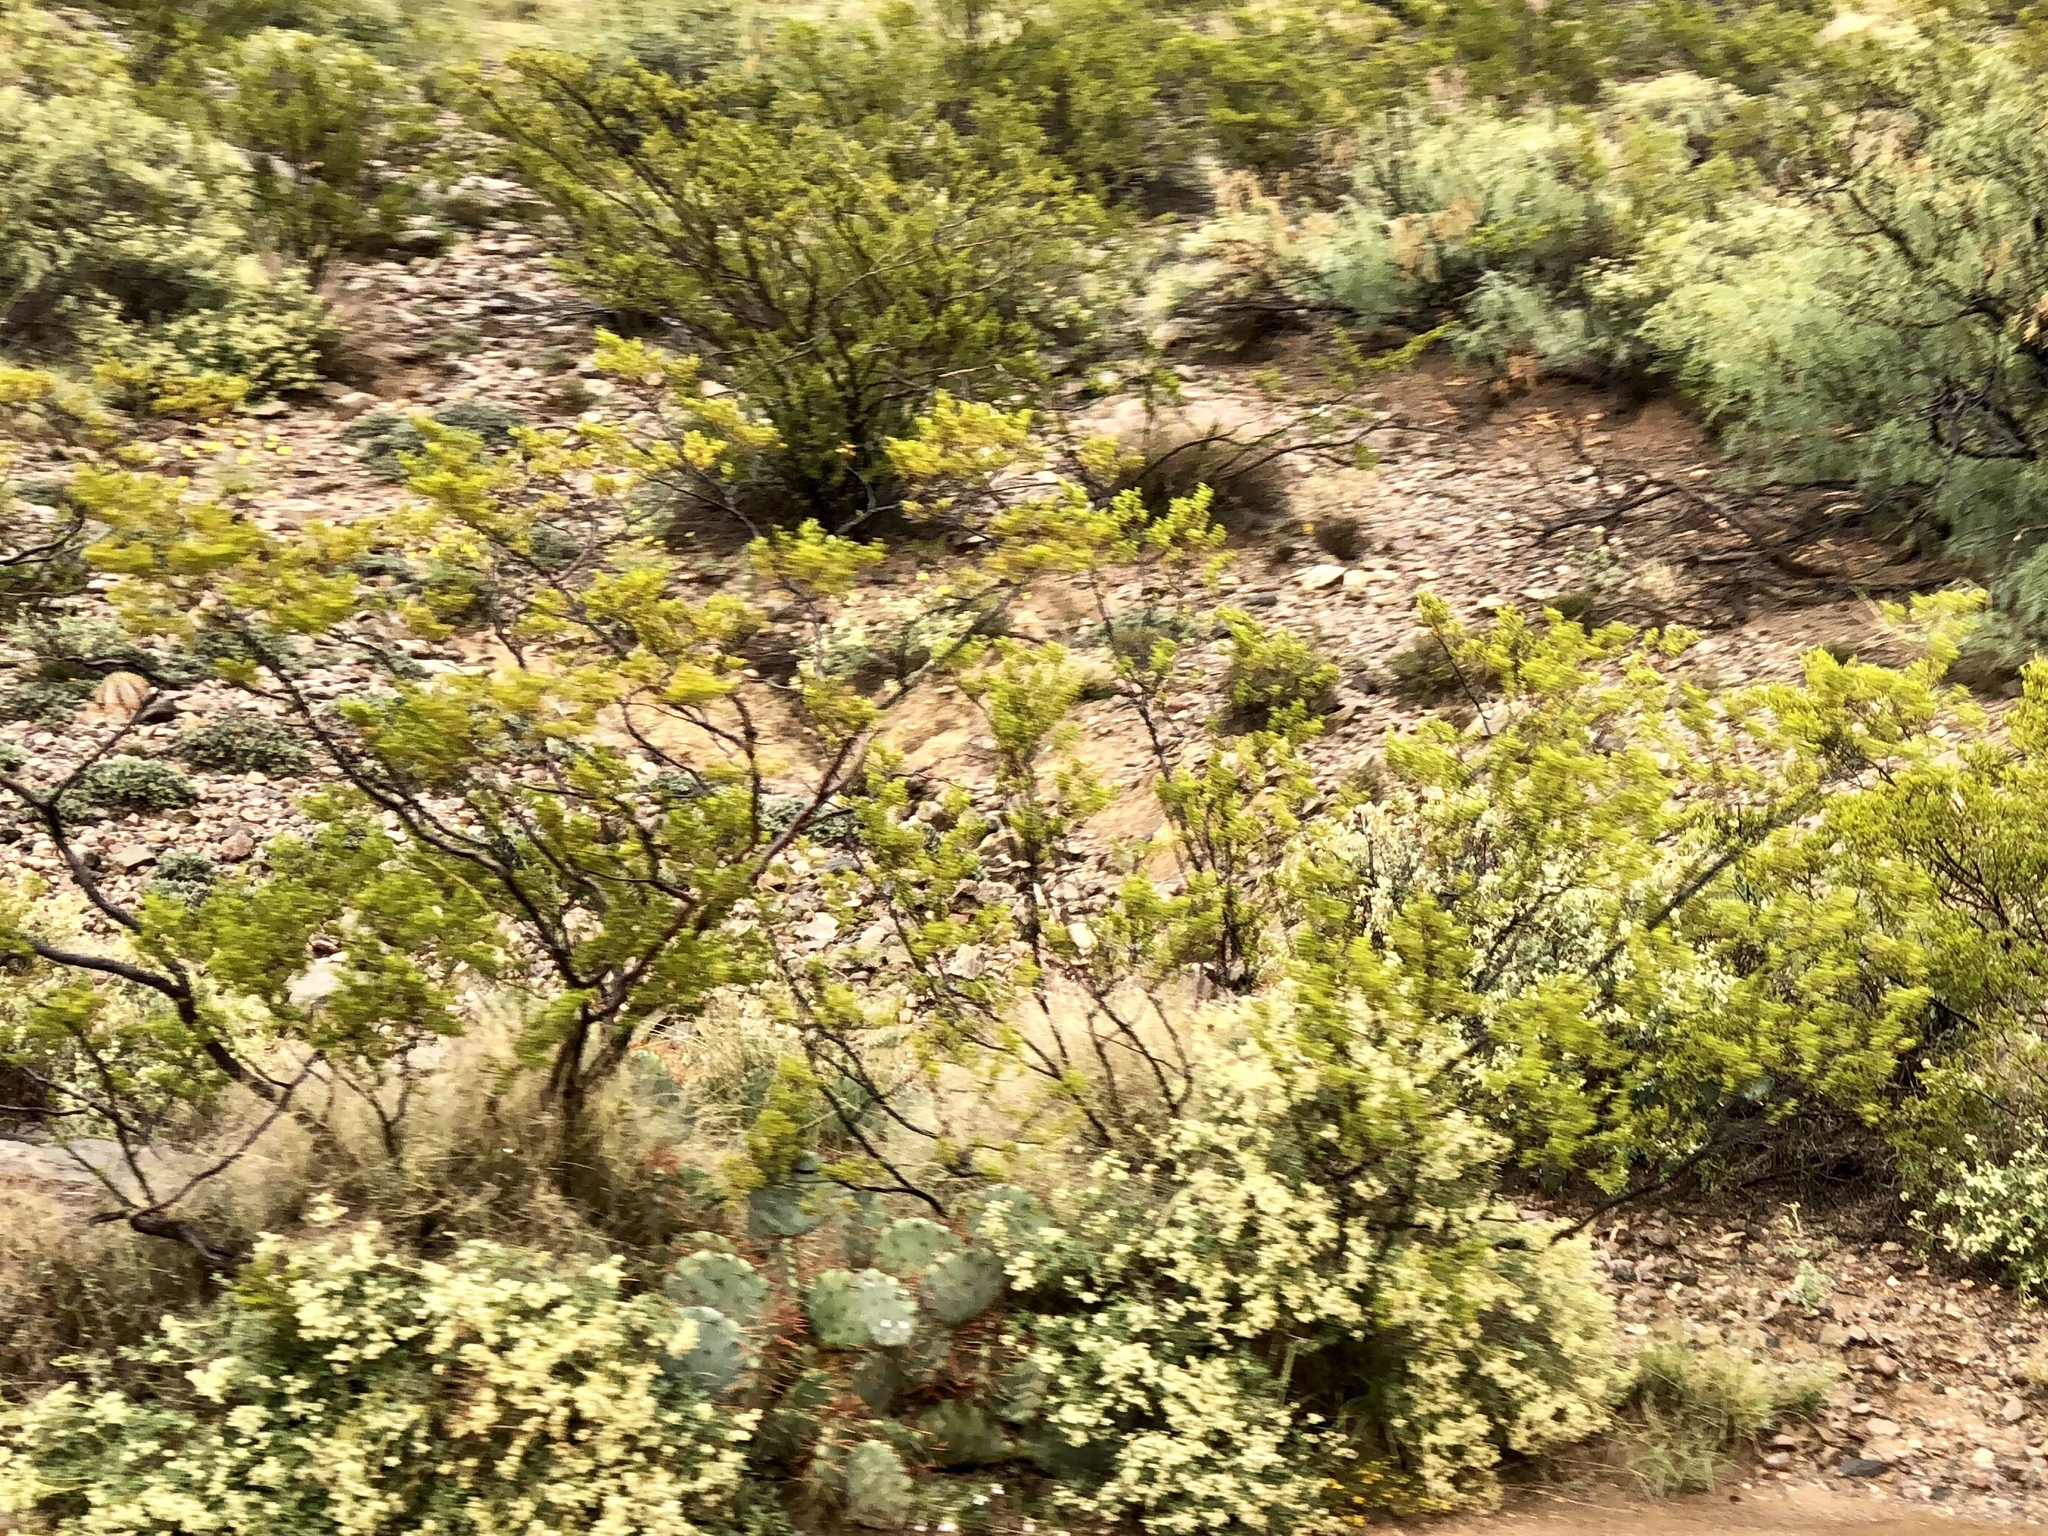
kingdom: Plantae
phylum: Tracheophyta
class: Magnoliopsida
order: Zygophyllales
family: Zygophyllaceae
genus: Larrea
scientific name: Larrea tridentata
